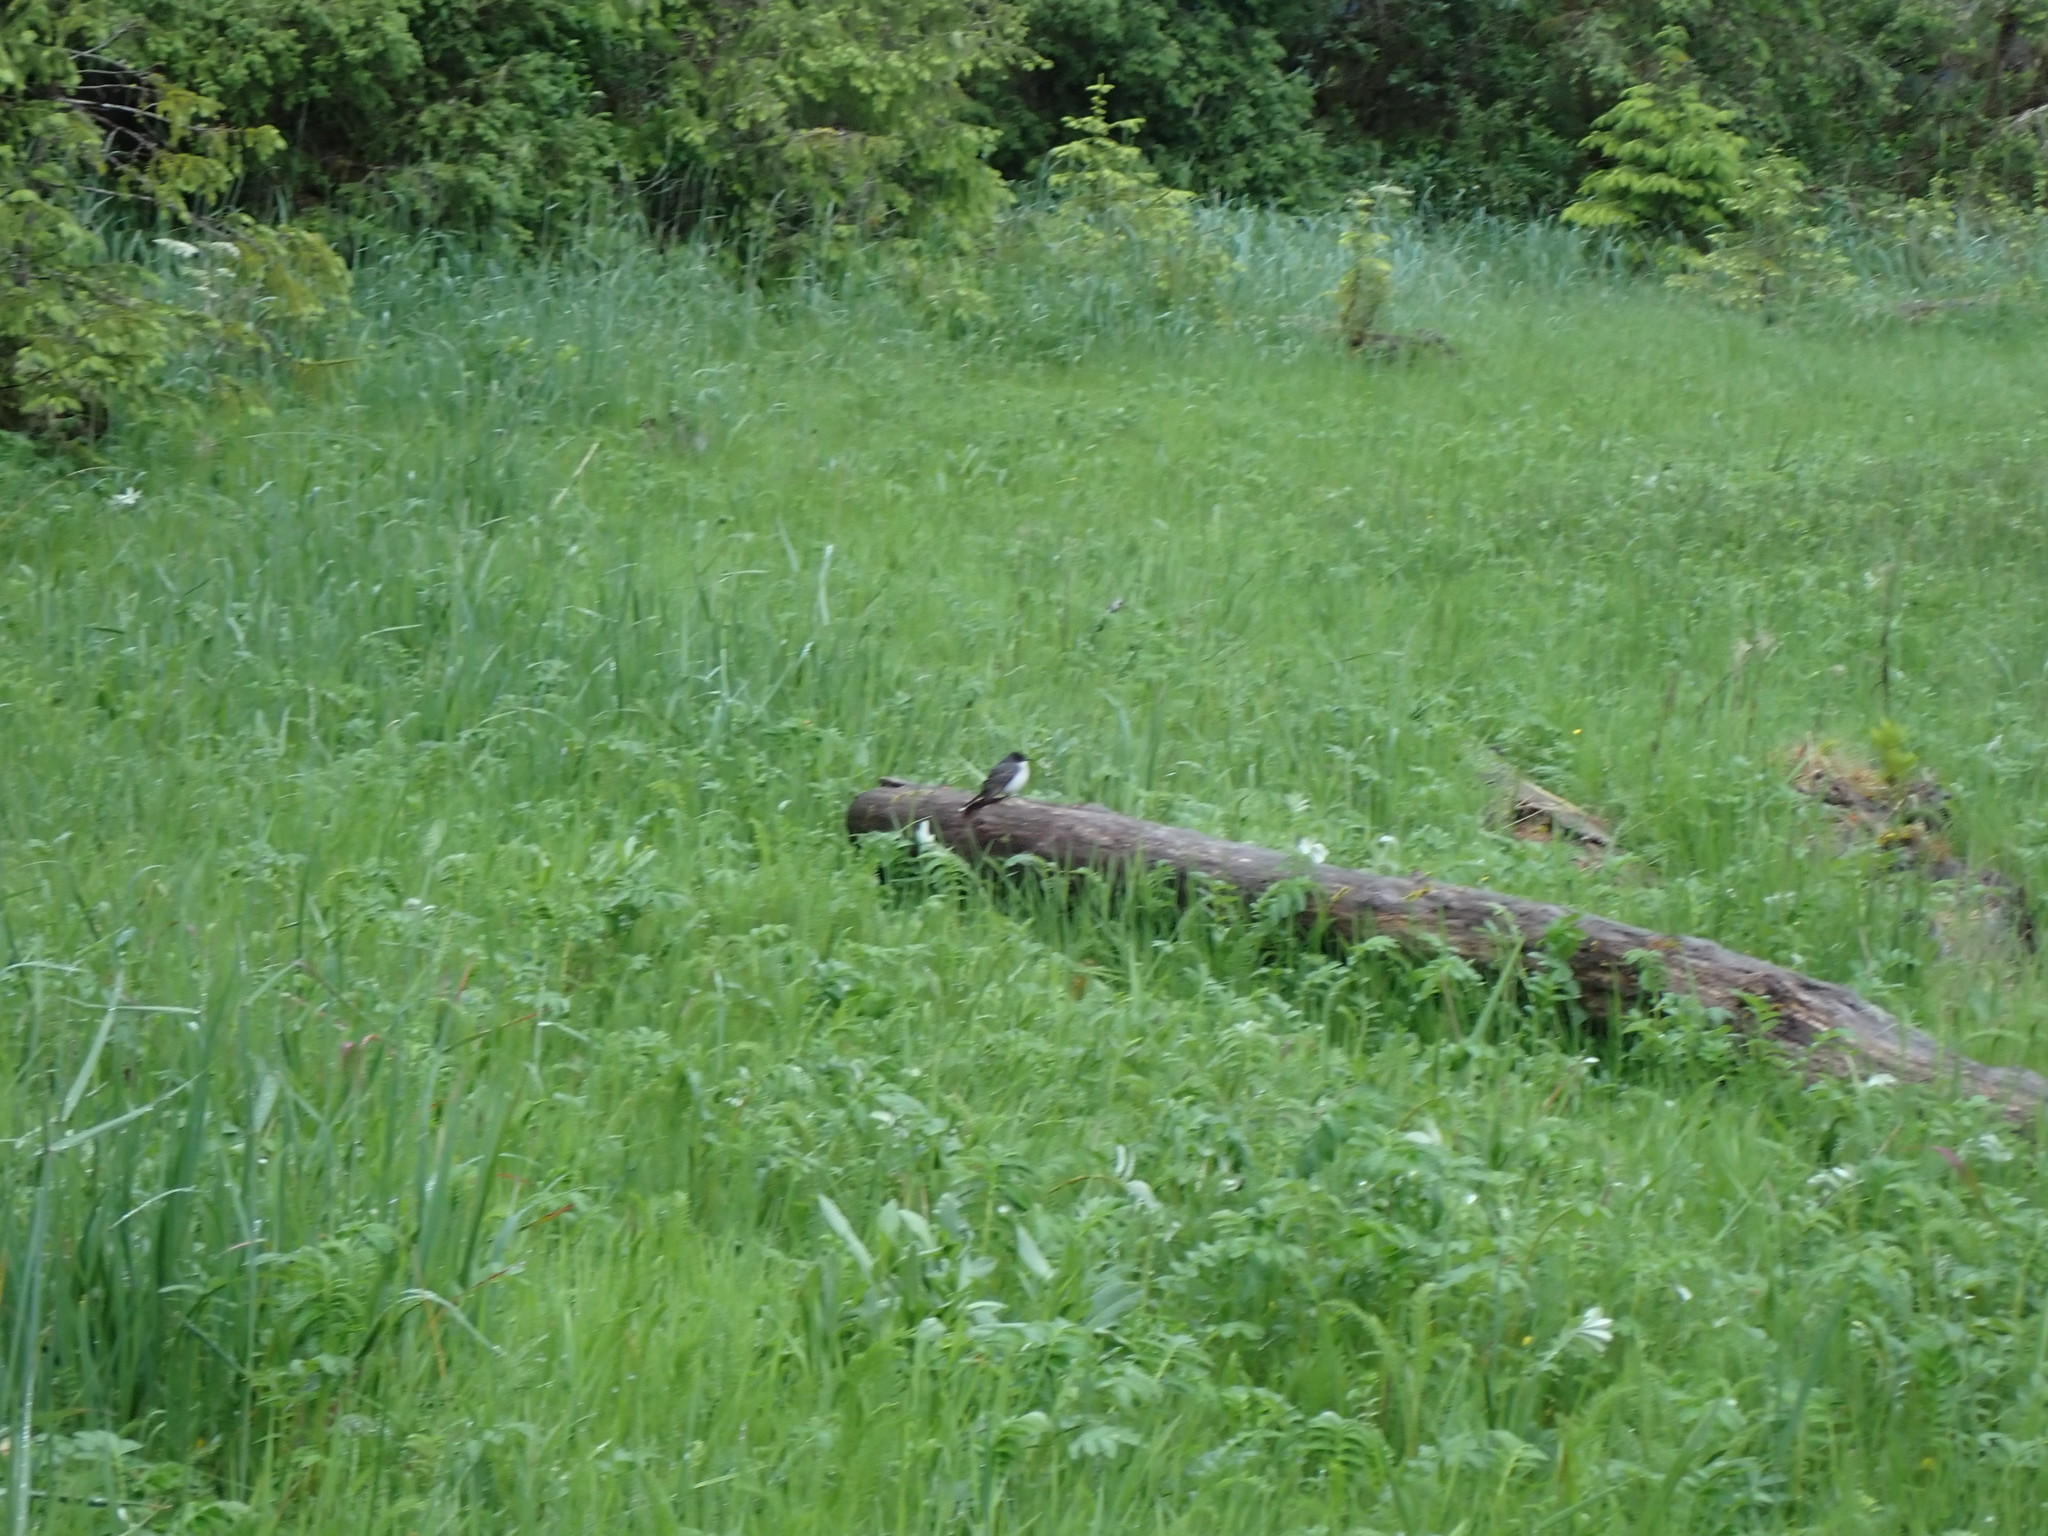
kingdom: Animalia
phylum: Chordata
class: Aves
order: Passeriformes
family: Tyrannidae
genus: Tyrannus
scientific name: Tyrannus tyrannus
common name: Eastern kingbird
